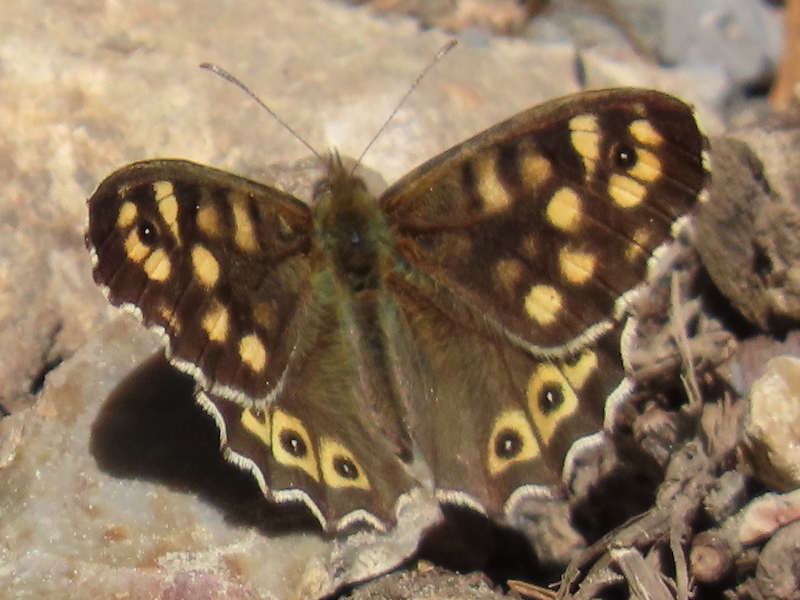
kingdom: Animalia
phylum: Arthropoda
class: Insecta
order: Lepidoptera
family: Nymphalidae
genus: Pararge
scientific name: Pararge aegeria
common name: Speckled wood
